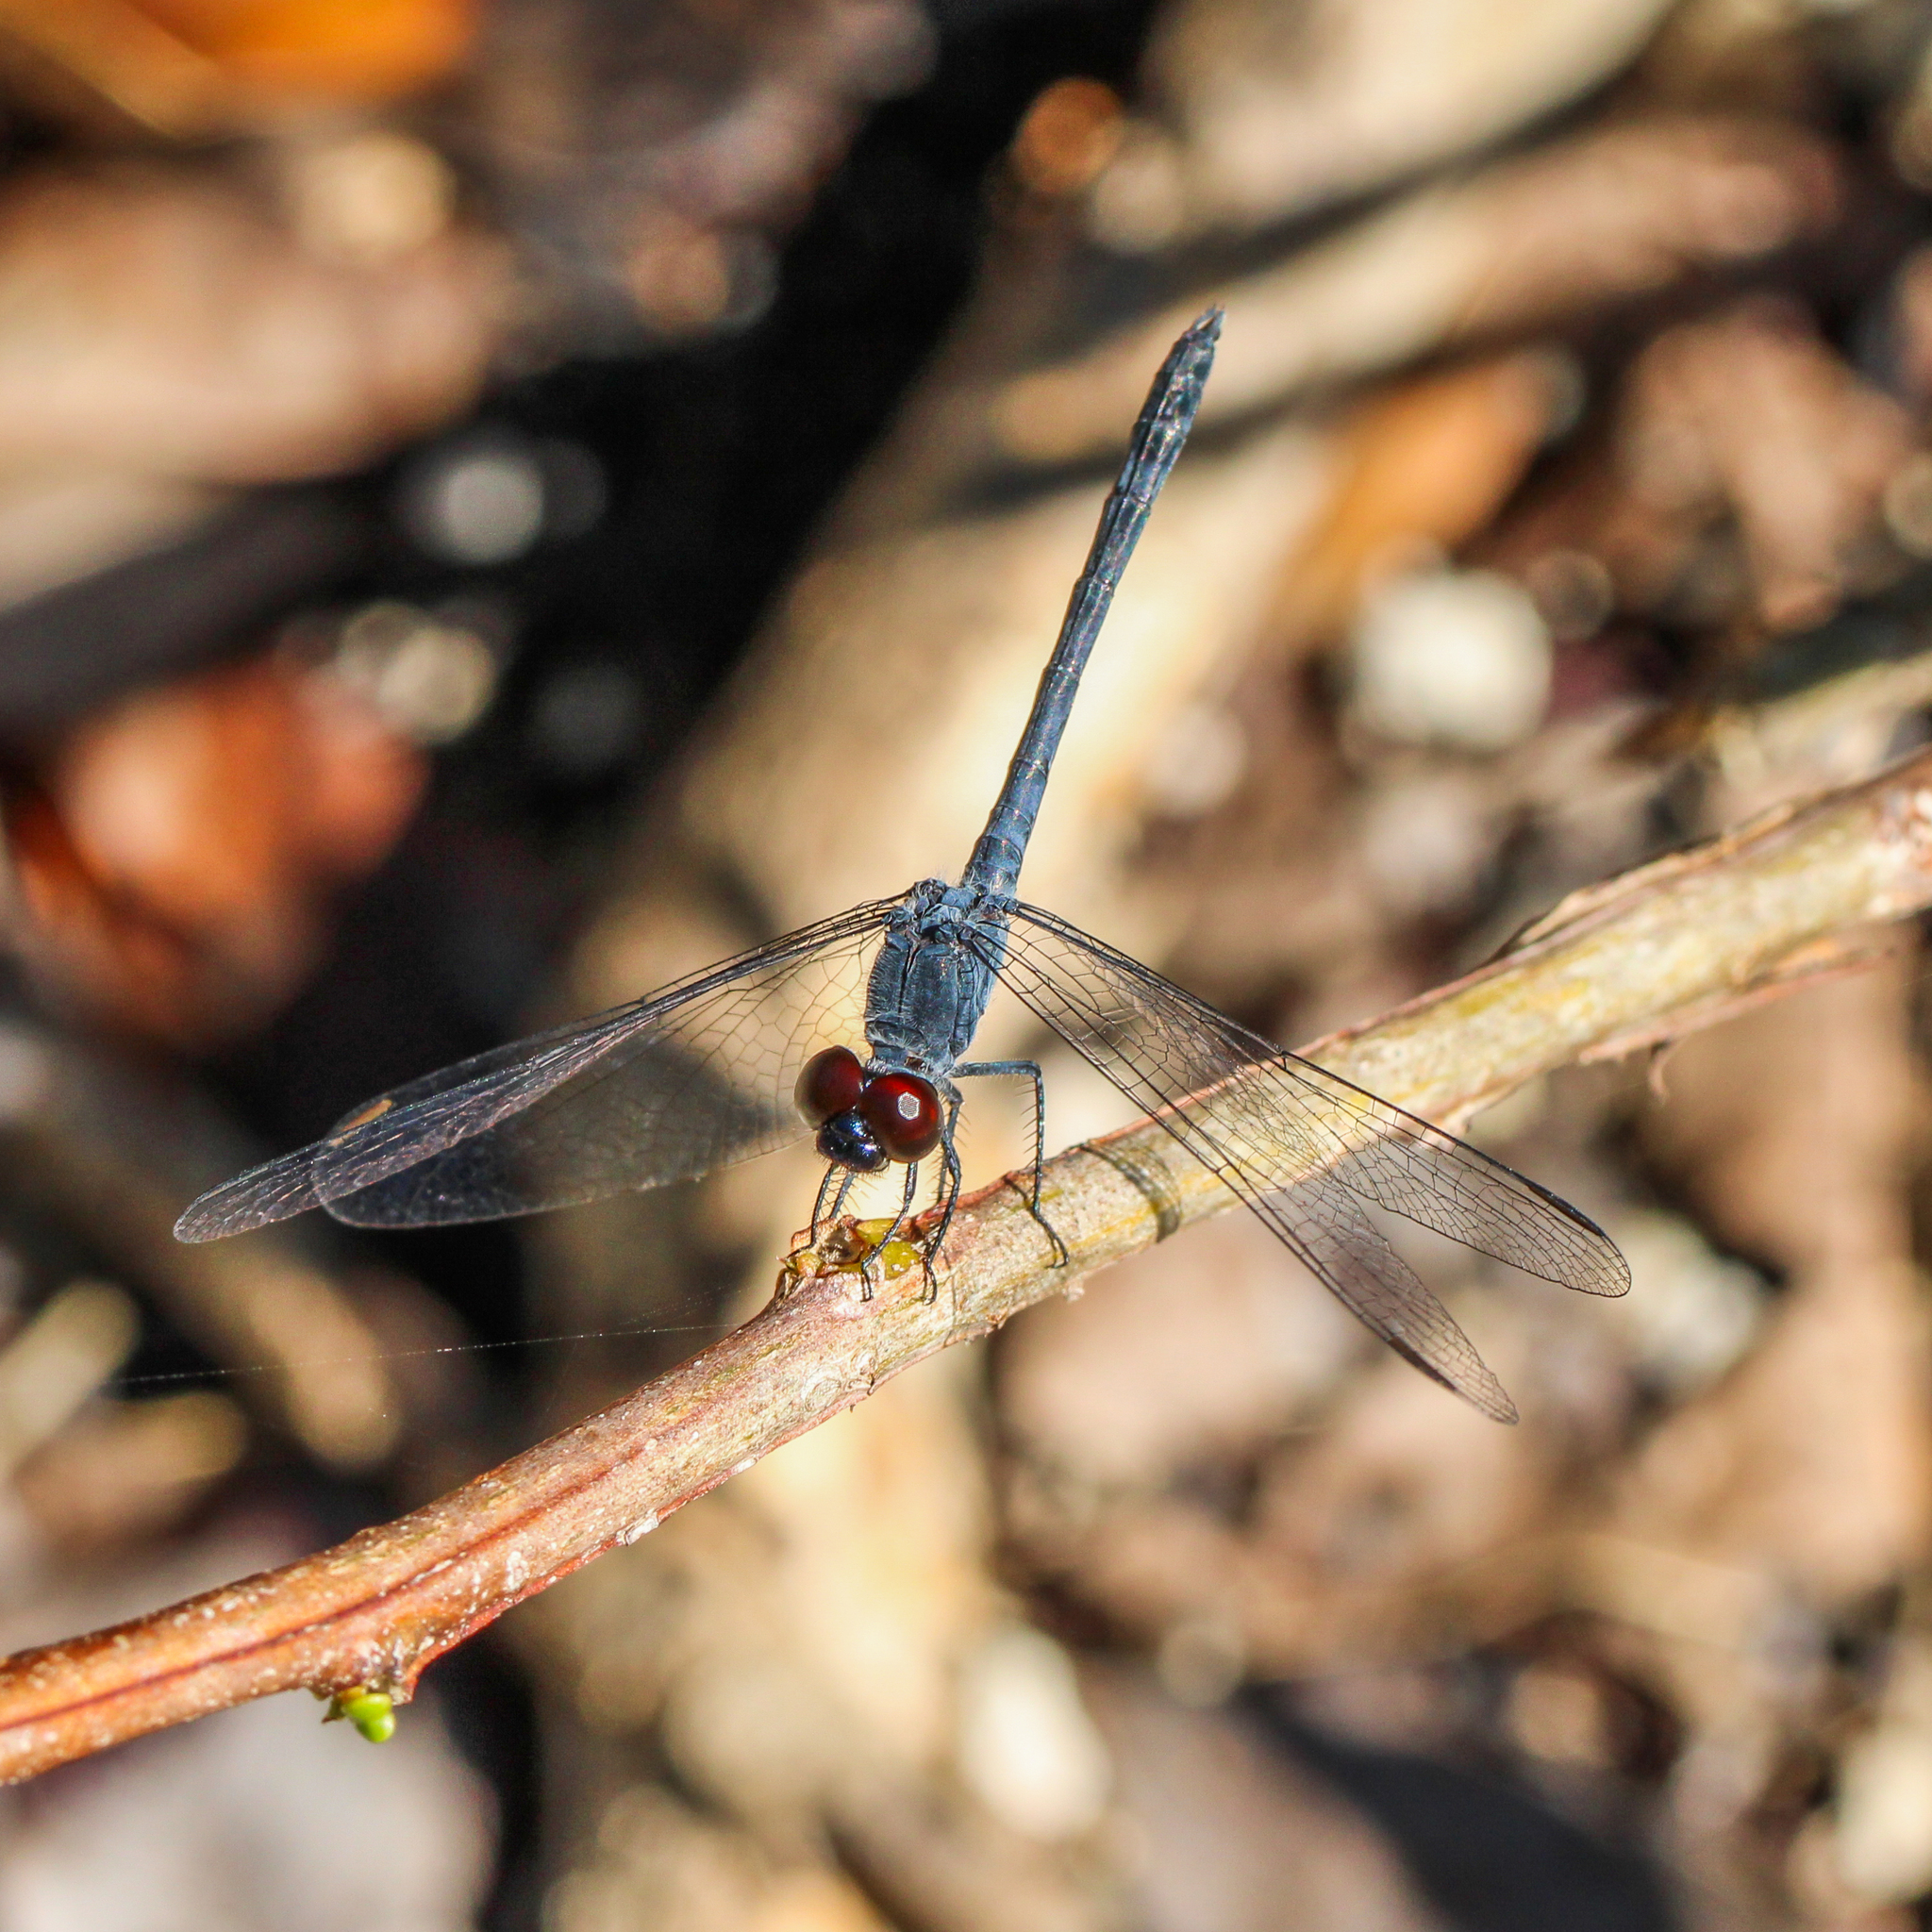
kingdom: Animalia
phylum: Arthropoda
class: Insecta
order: Odonata
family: Libellulidae
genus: Erythrodiplax
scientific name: Erythrodiplax berenice
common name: Seaside dragonlet
